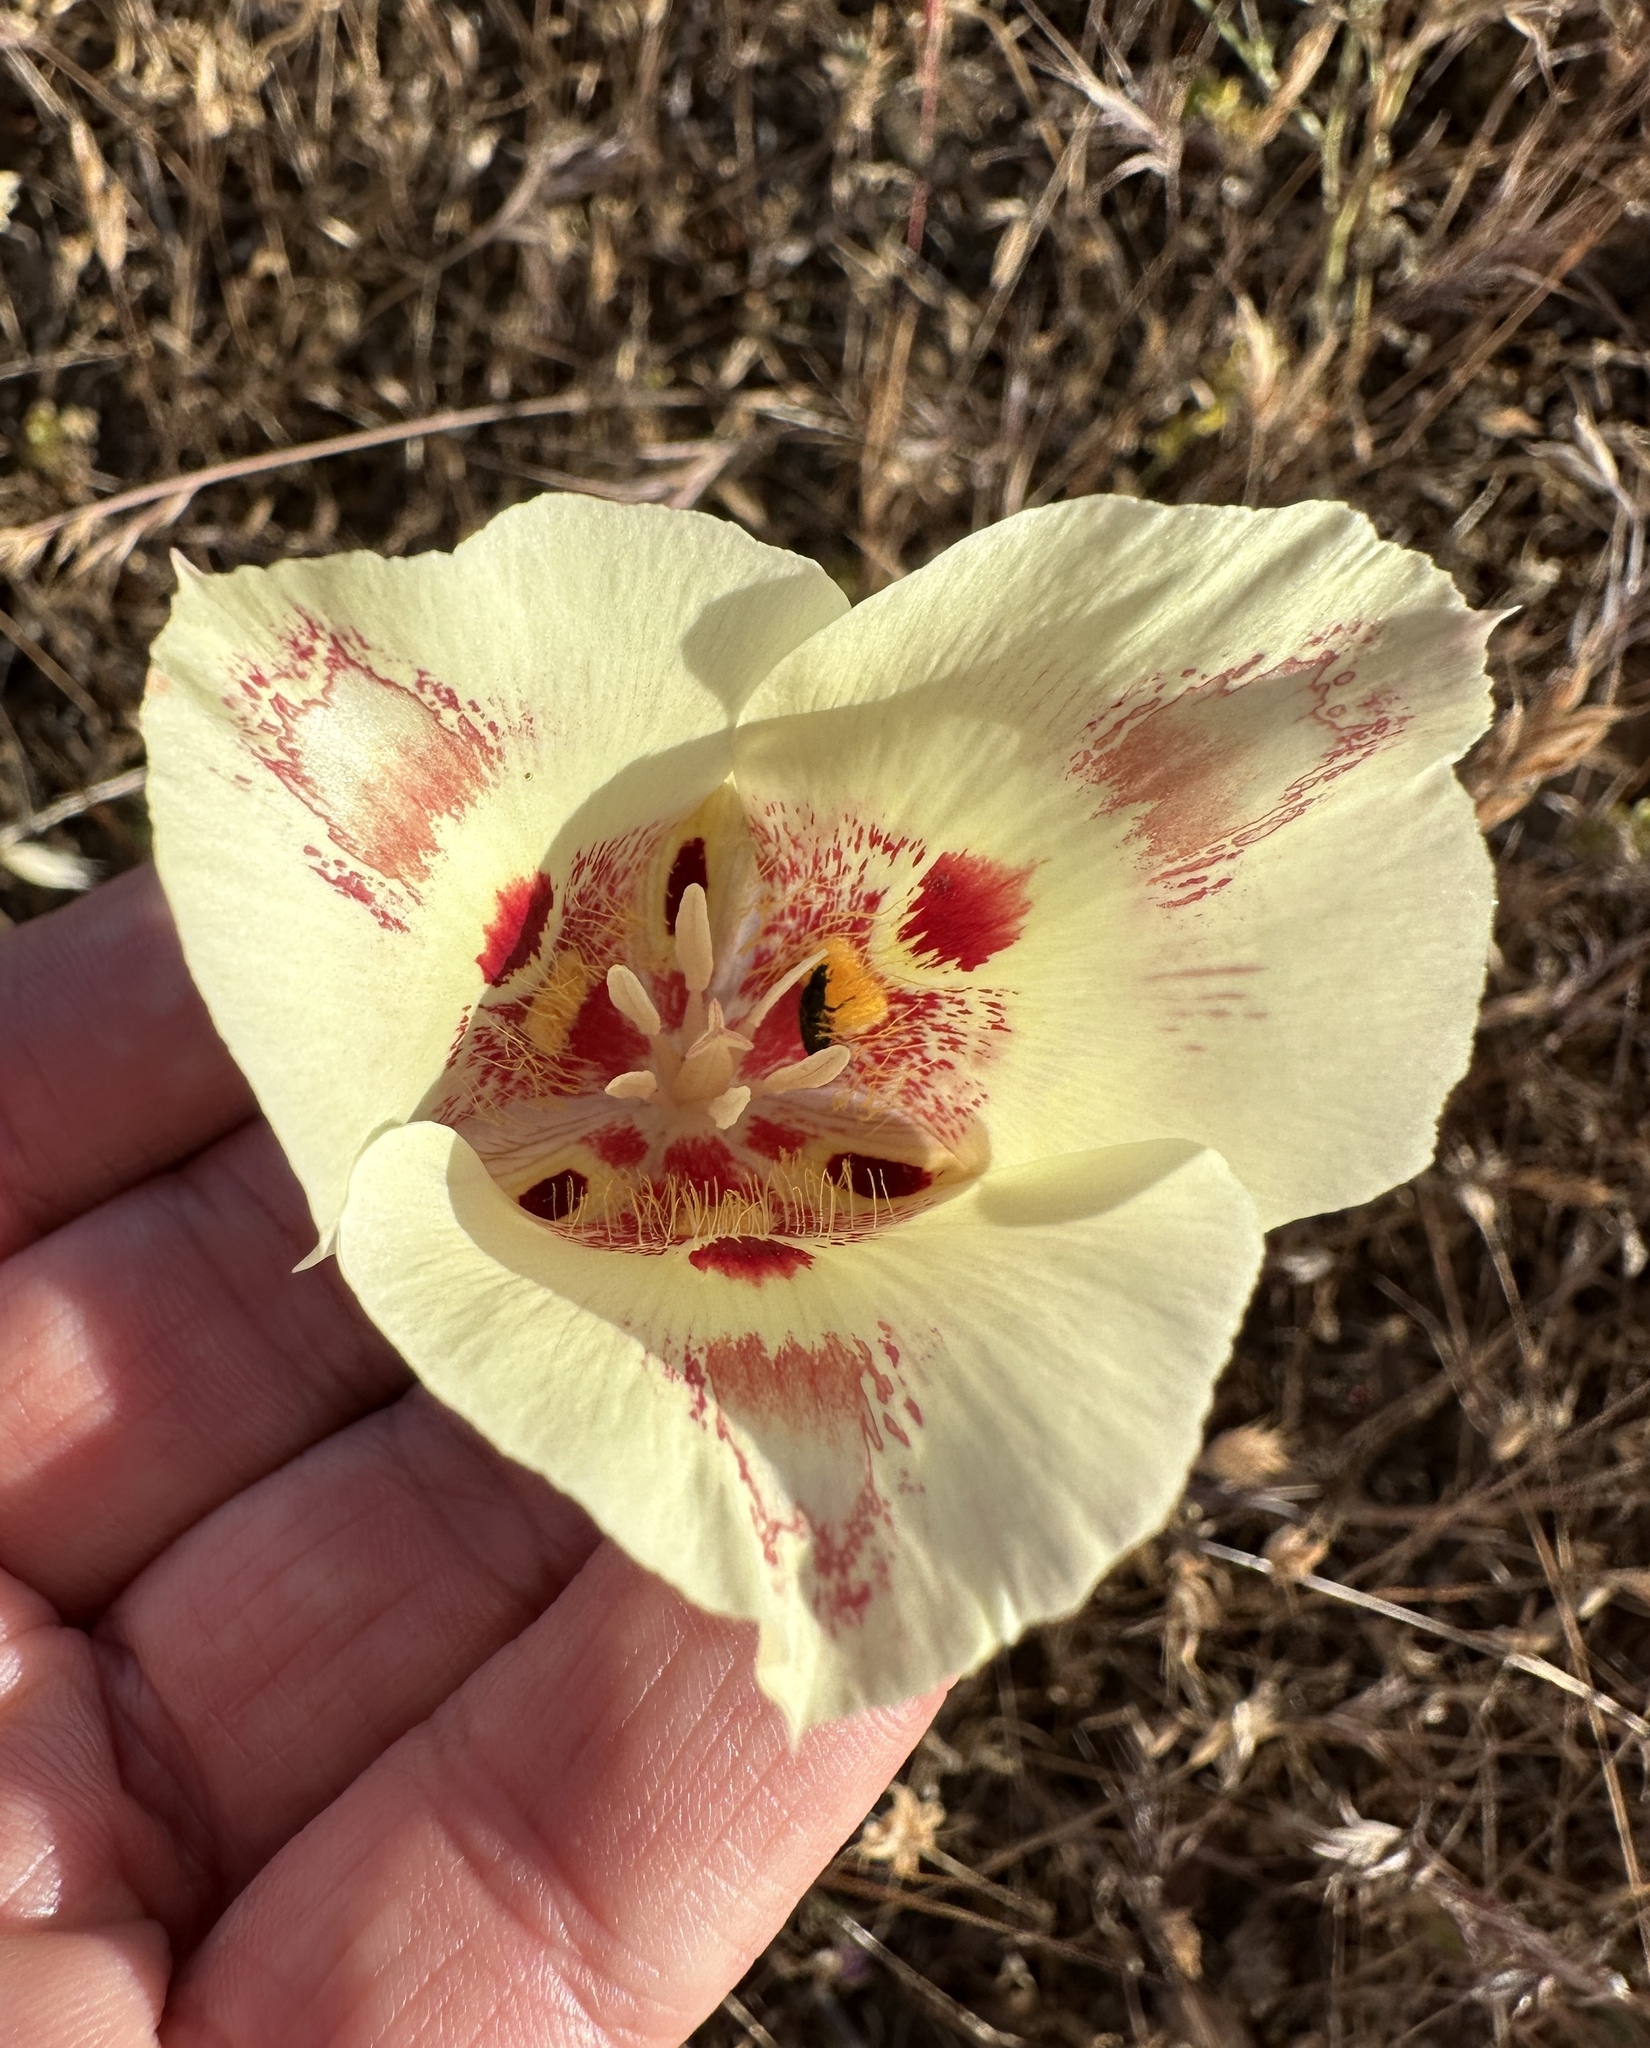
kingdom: Plantae
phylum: Tracheophyta
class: Liliopsida
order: Liliales
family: Liliaceae
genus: Calochortus
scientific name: Calochortus venustus
